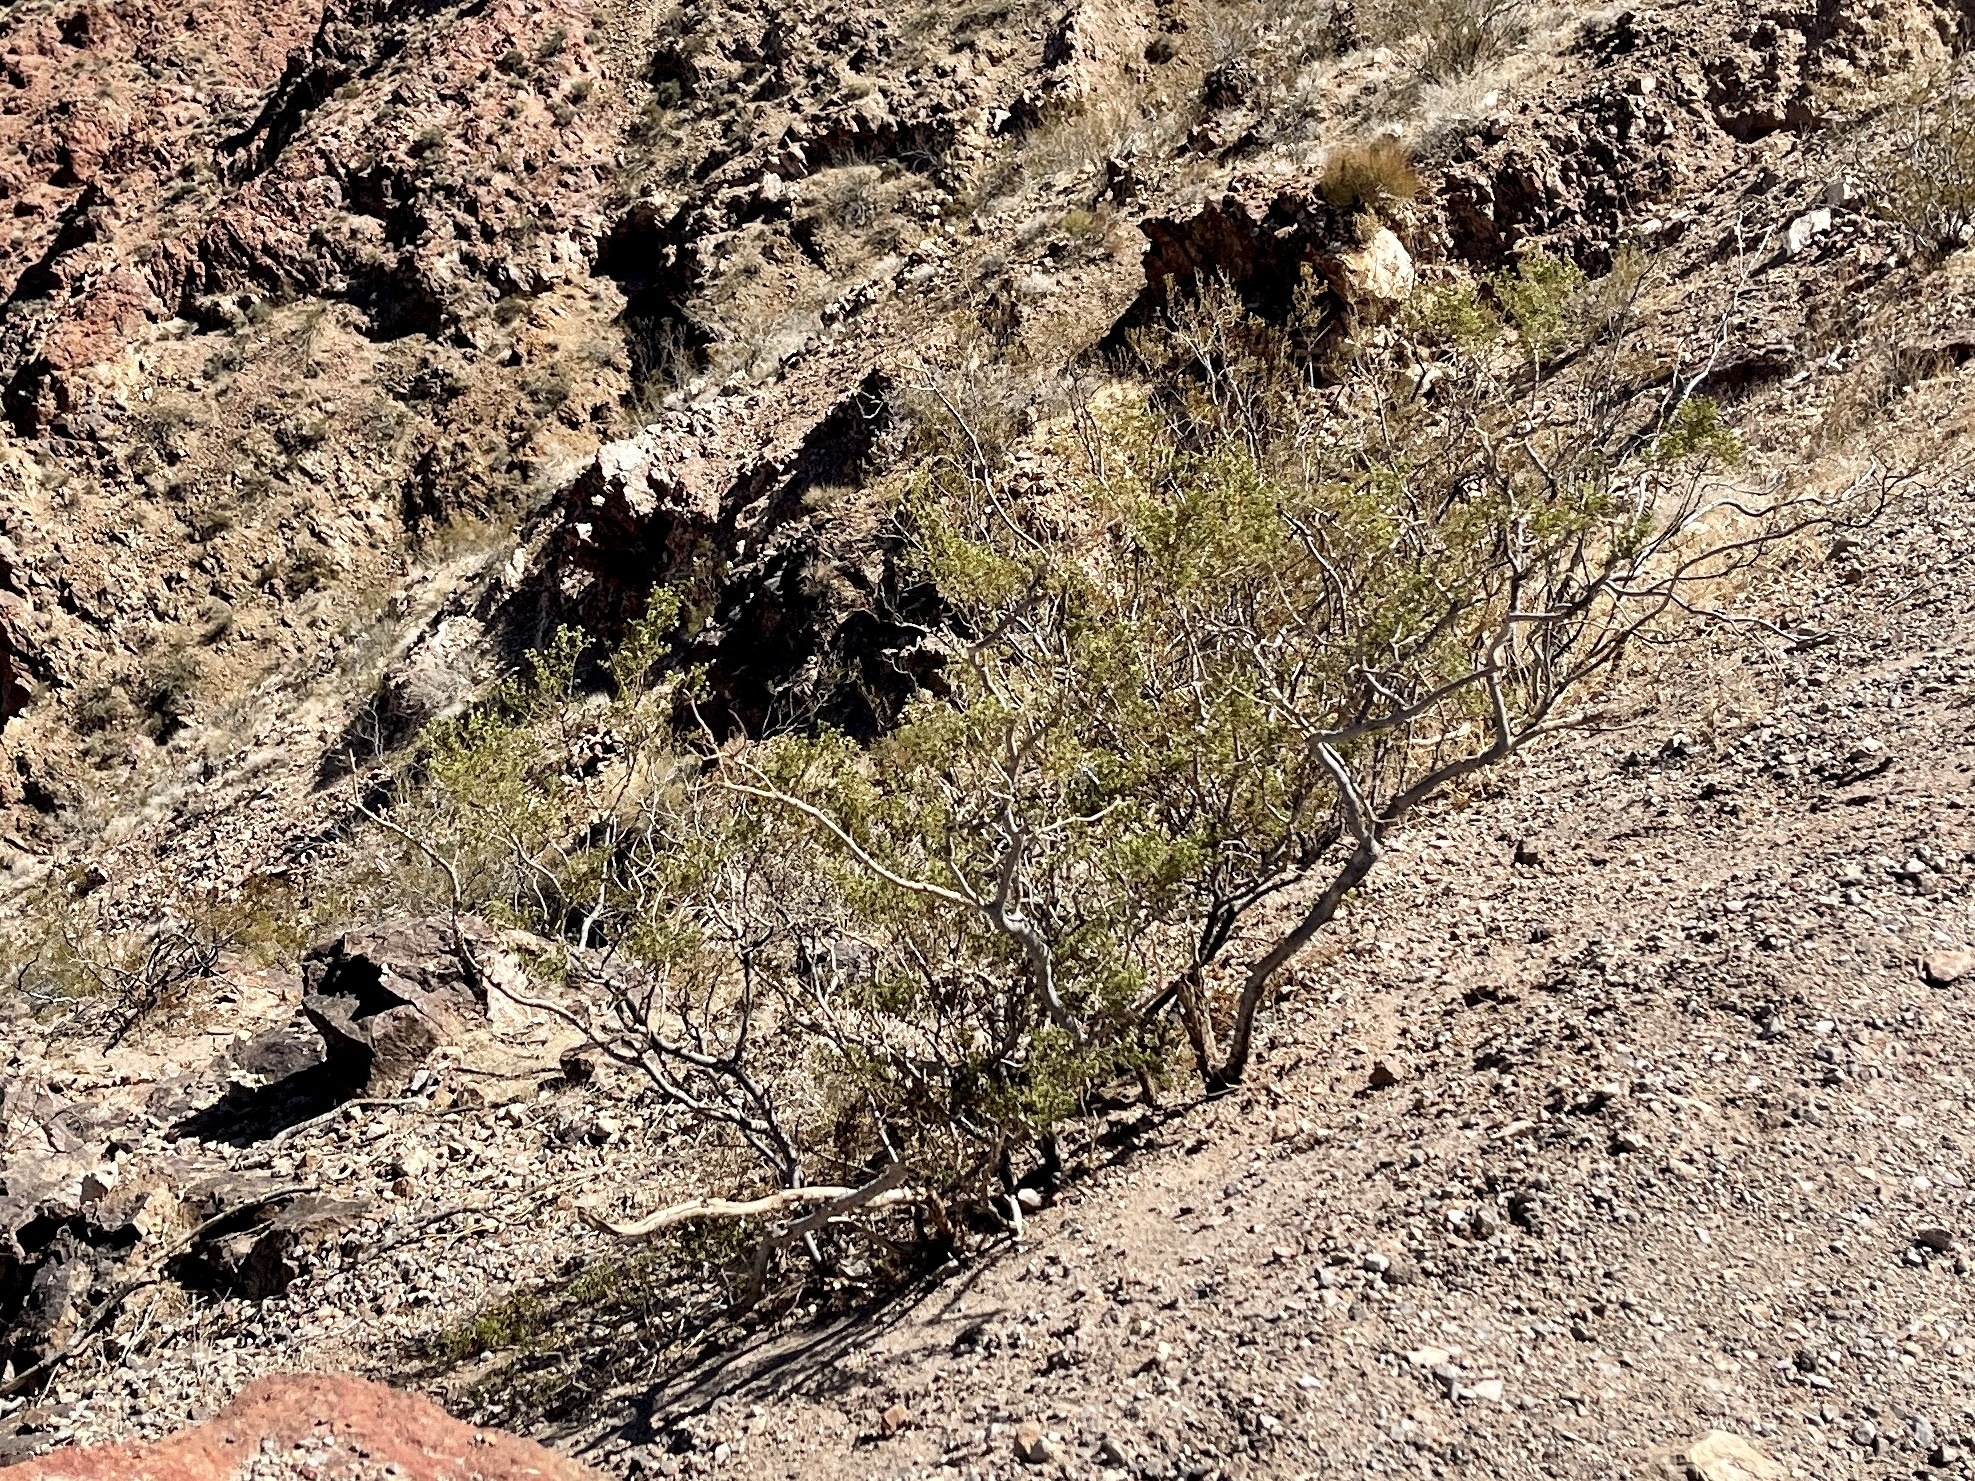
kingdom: Plantae
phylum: Tracheophyta
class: Magnoliopsida
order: Zygophyllales
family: Zygophyllaceae
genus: Larrea
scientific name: Larrea tridentata
